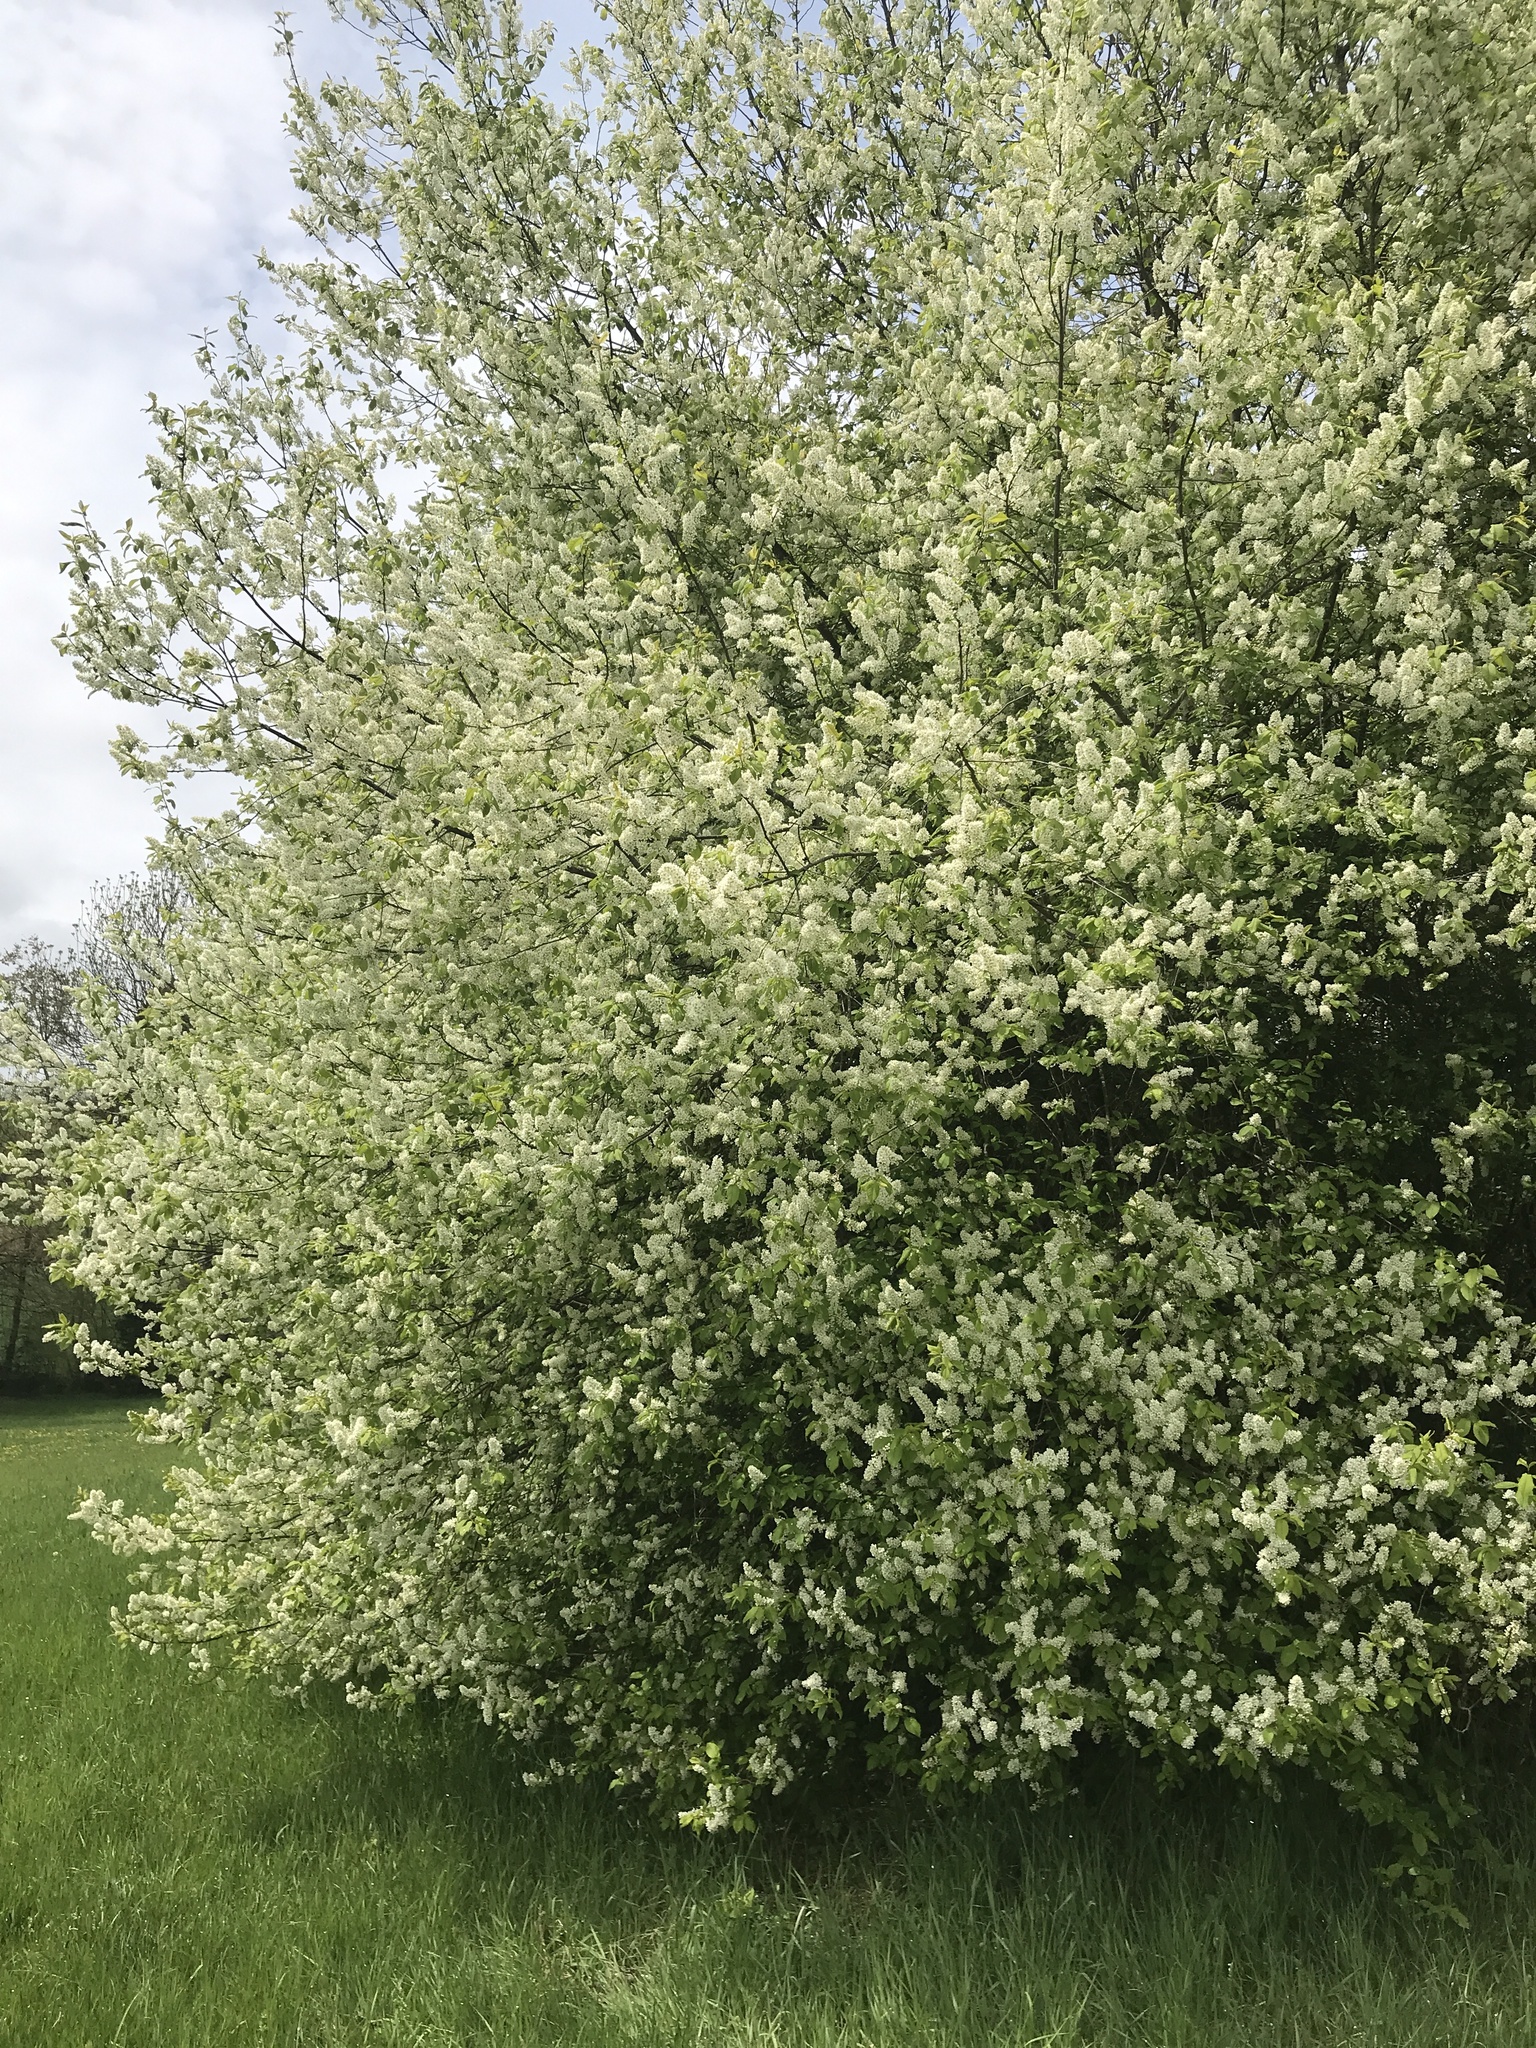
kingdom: Plantae
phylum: Tracheophyta
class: Magnoliopsida
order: Rosales
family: Rosaceae
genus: Prunus
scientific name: Prunus padus
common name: Bird cherry
